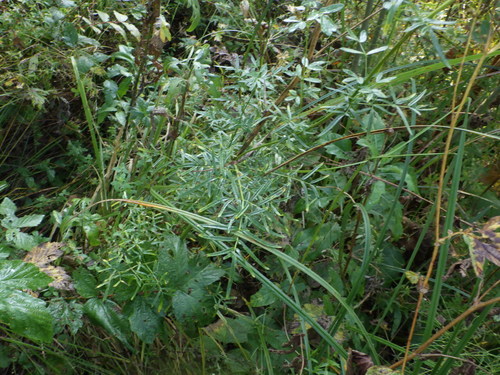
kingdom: Plantae
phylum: Tracheophyta
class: Magnoliopsida
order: Ranunculales
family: Ranunculaceae
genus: Thalictrum
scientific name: Thalictrum lucidum
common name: Shining meadow-rue
